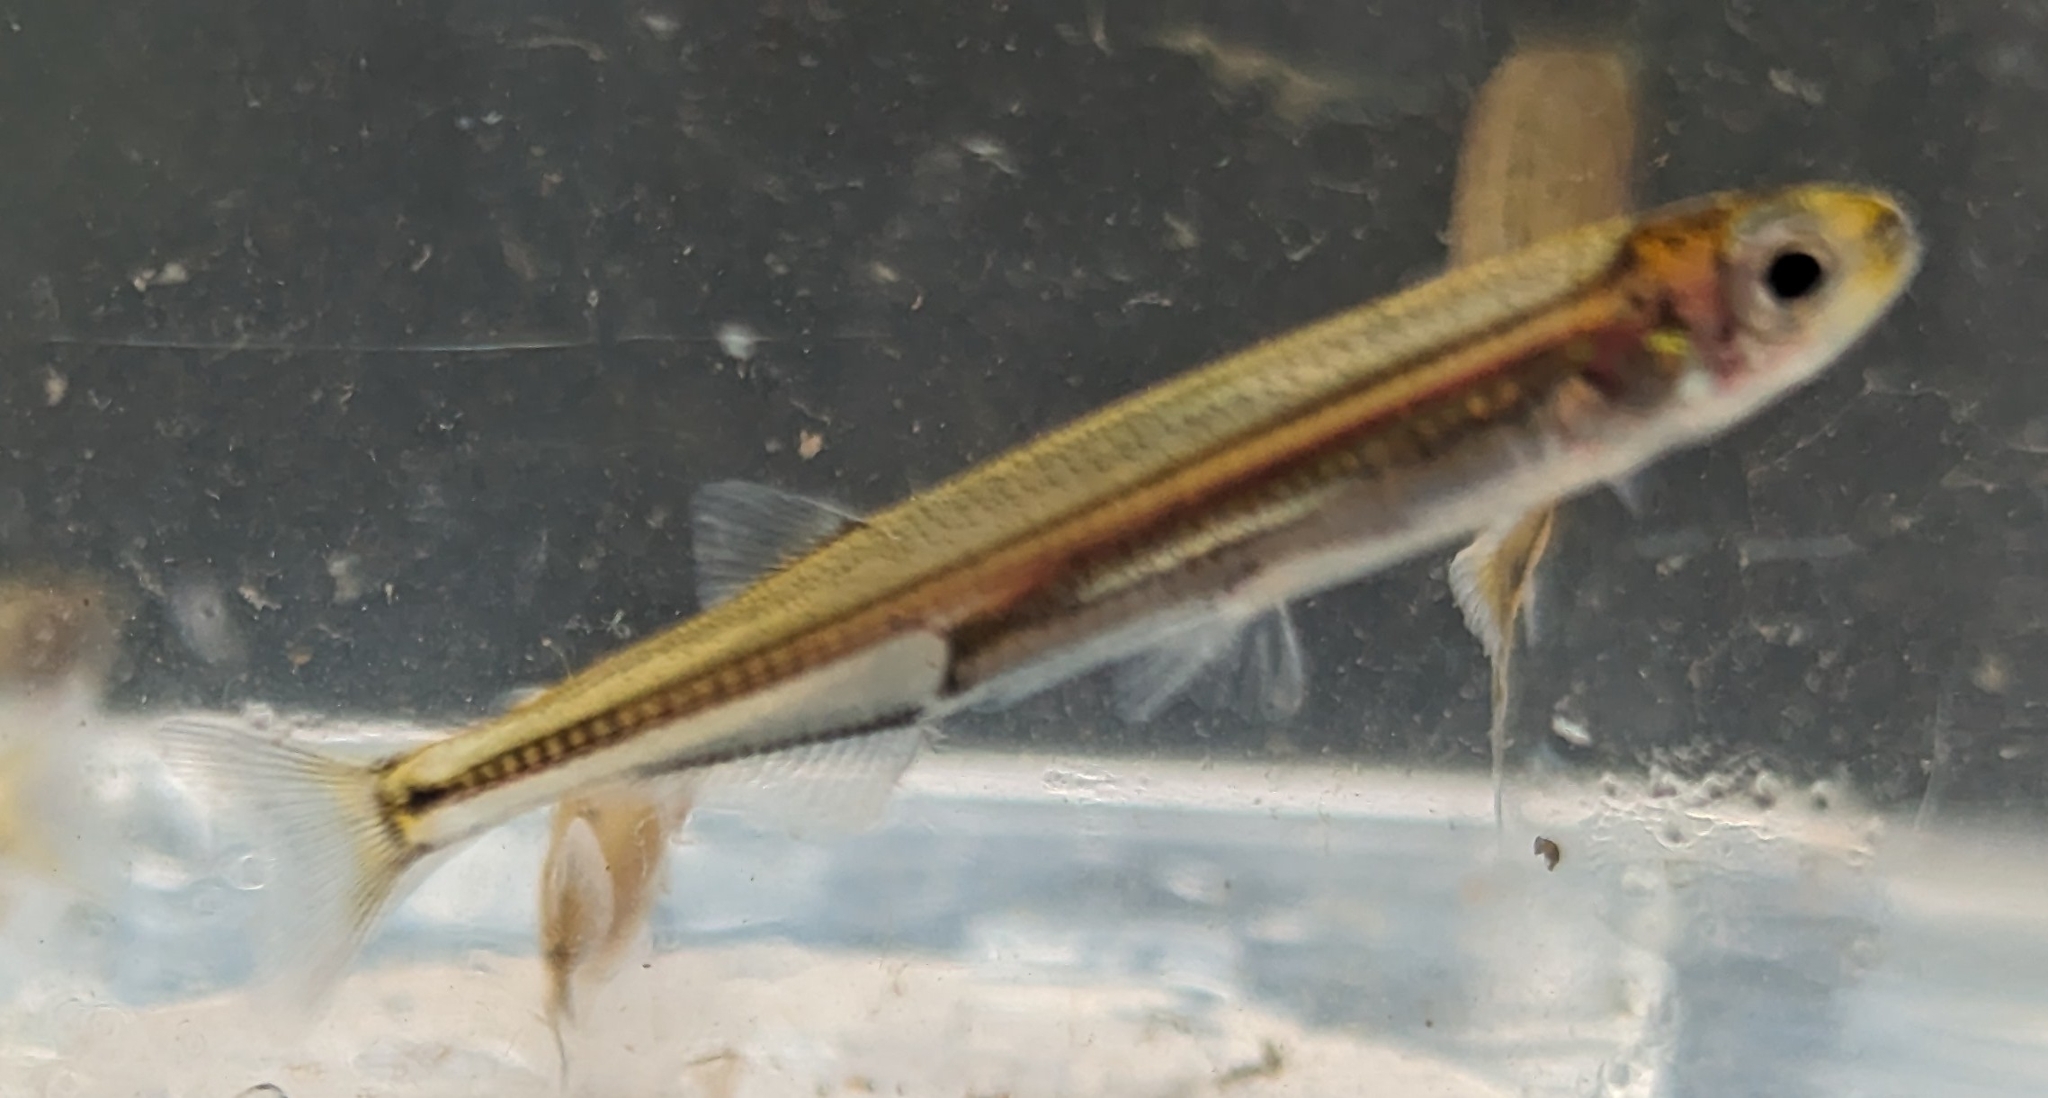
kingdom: Animalia
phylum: Chordata
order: Osmeriformes
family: Retropinnidae
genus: Retropinna
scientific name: Retropinna semoni
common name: Australian smelt
